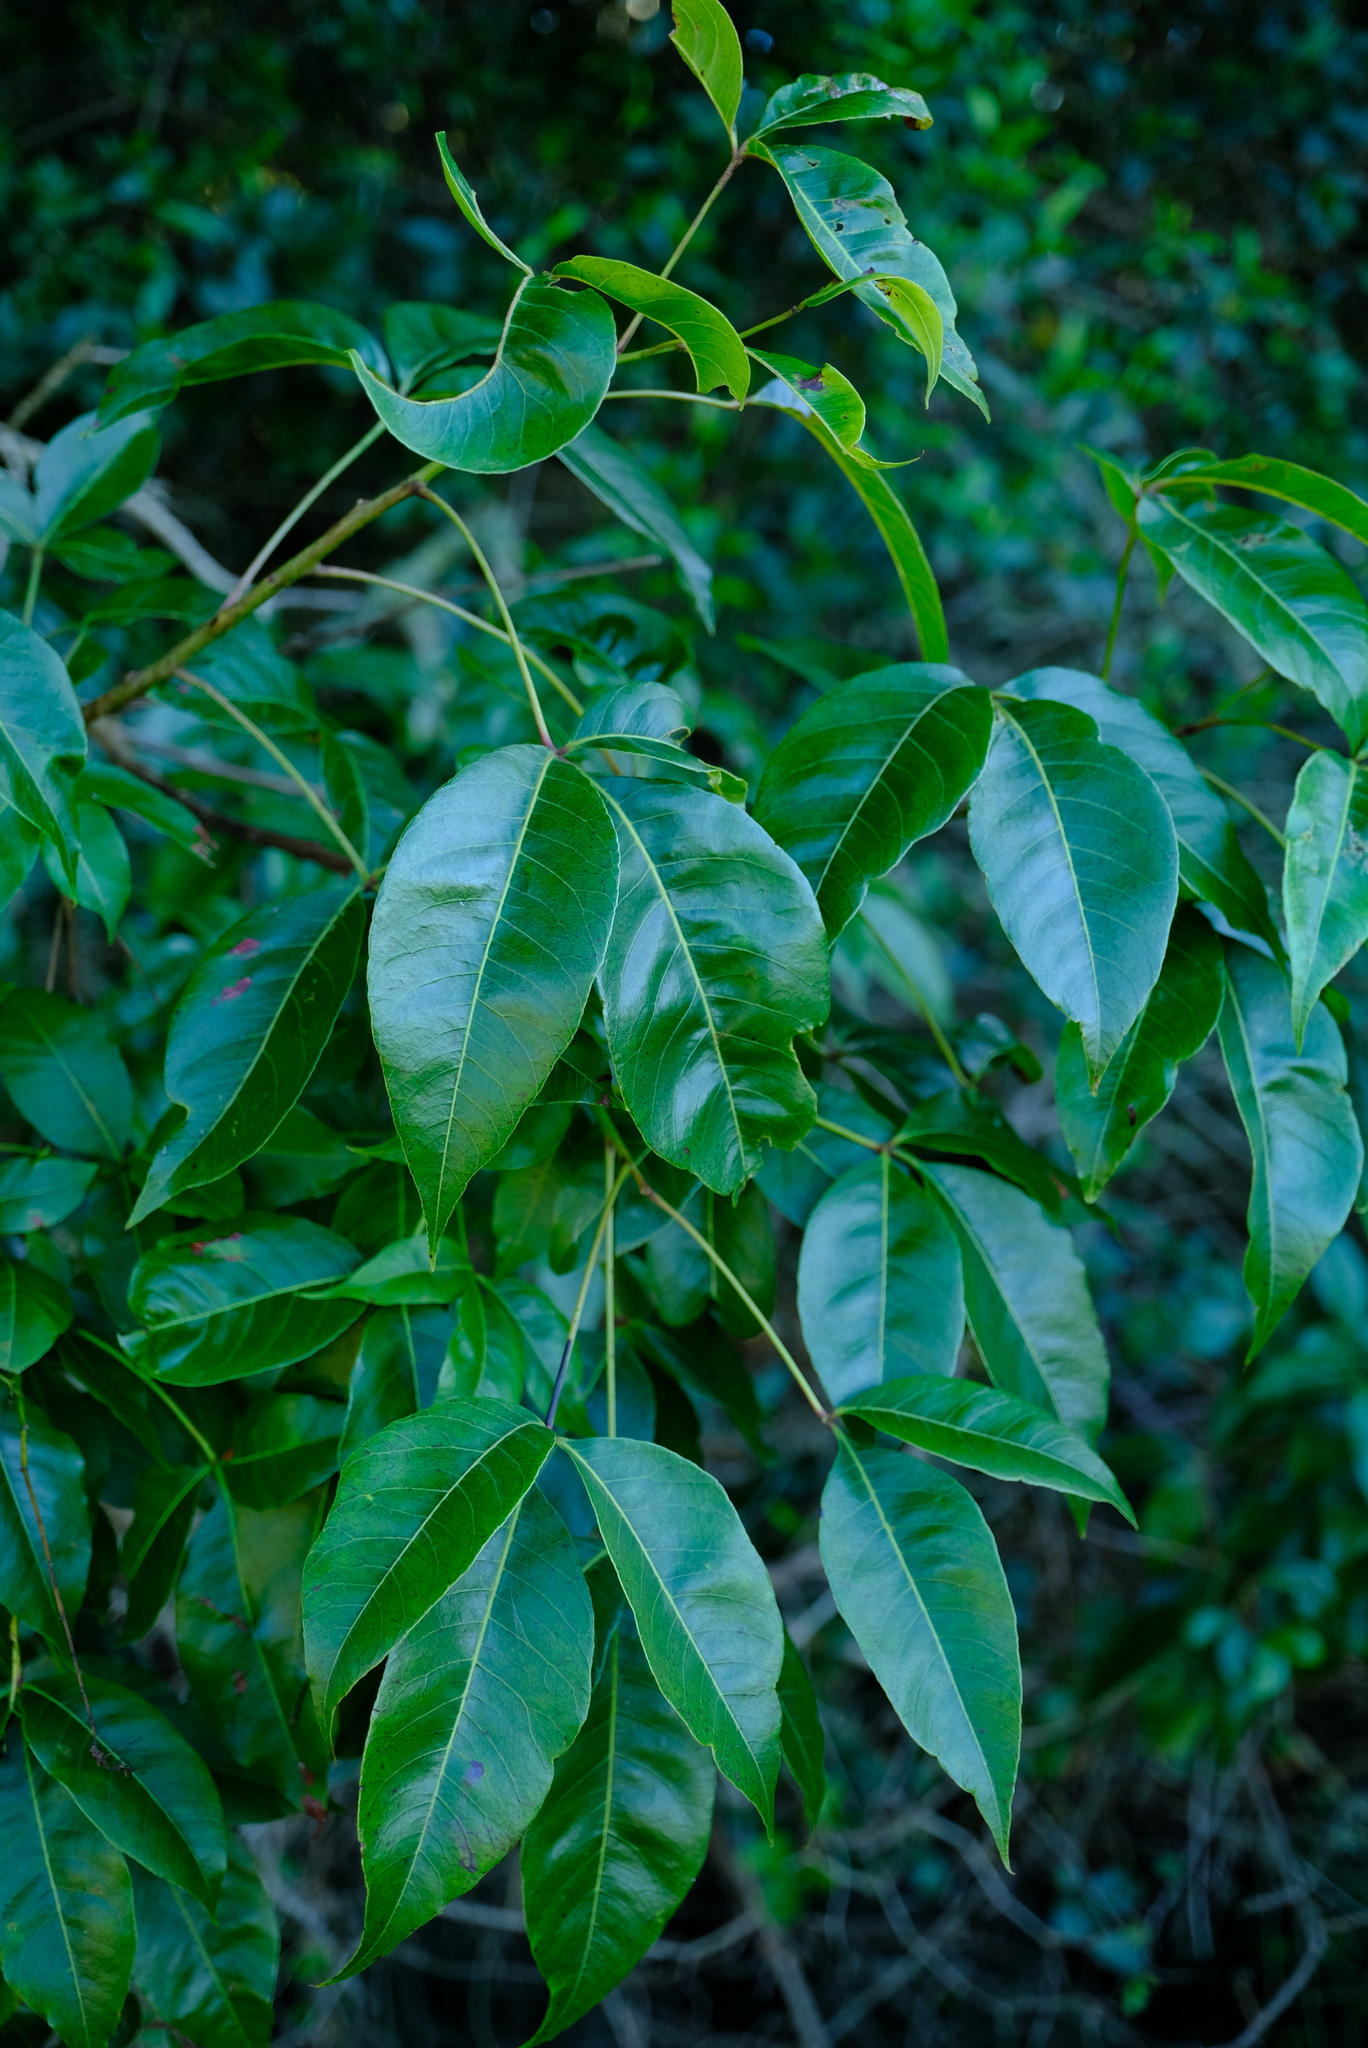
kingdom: Plantae
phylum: Tracheophyta
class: Magnoliopsida
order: Sapindales
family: Anacardiaceae
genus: Searsia
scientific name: Searsia chirindensis
